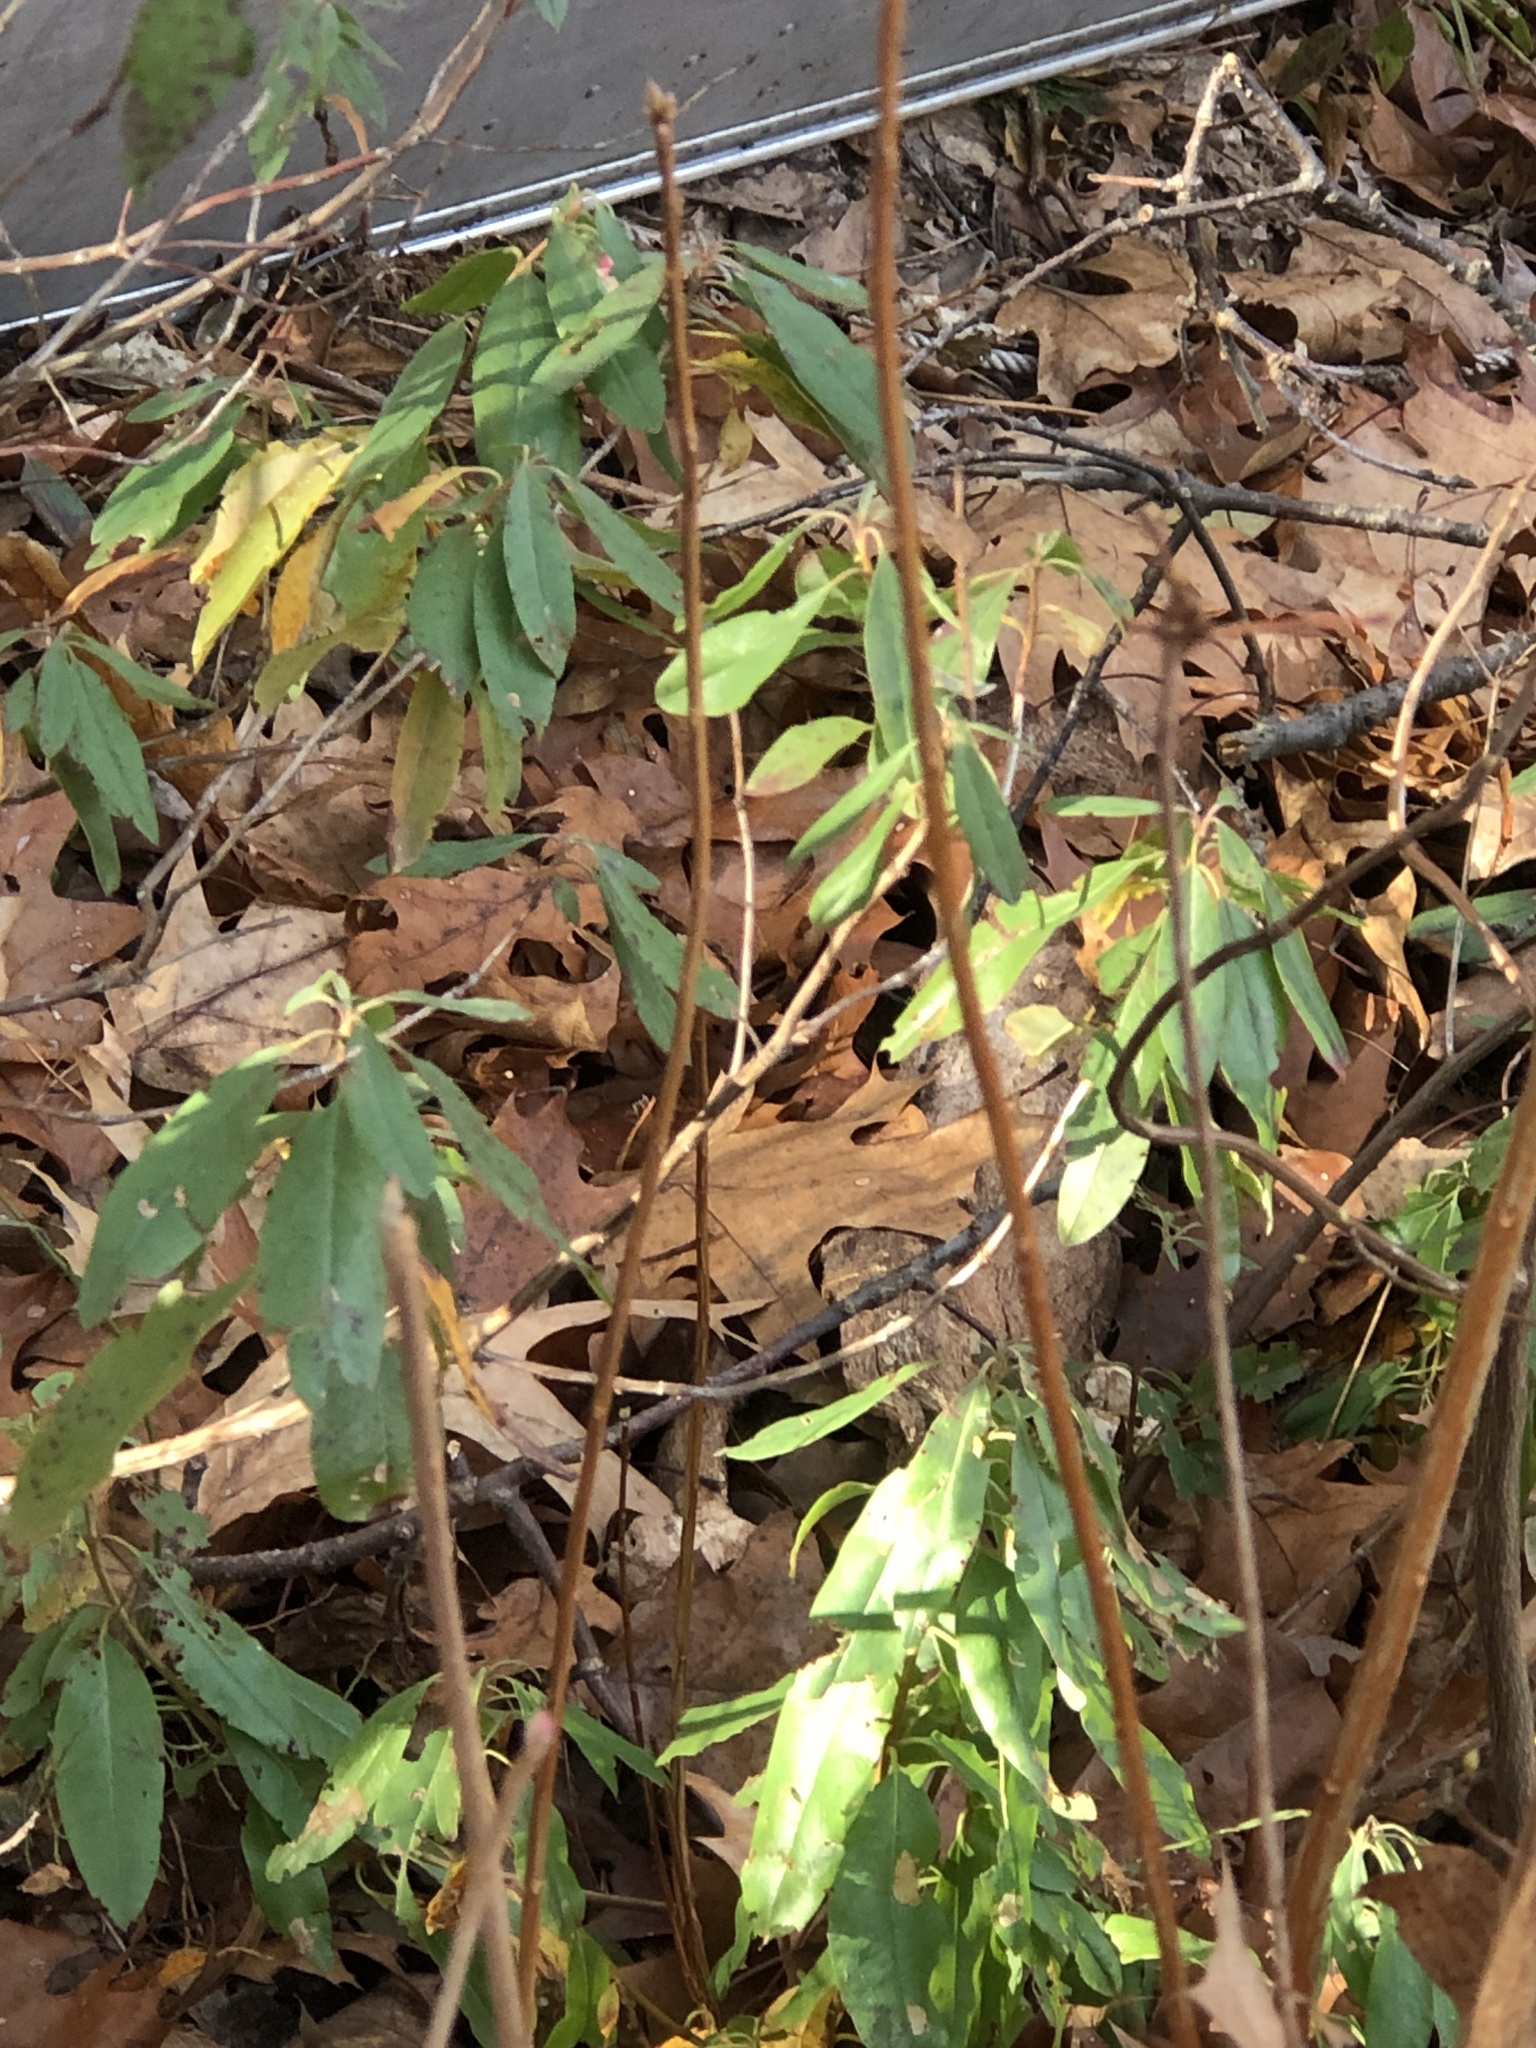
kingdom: Plantae
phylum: Tracheophyta
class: Magnoliopsida
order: Ericales
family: Ericaceae
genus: Kalmia
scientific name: Kalmia angustifolia
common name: Sheep-laurel
